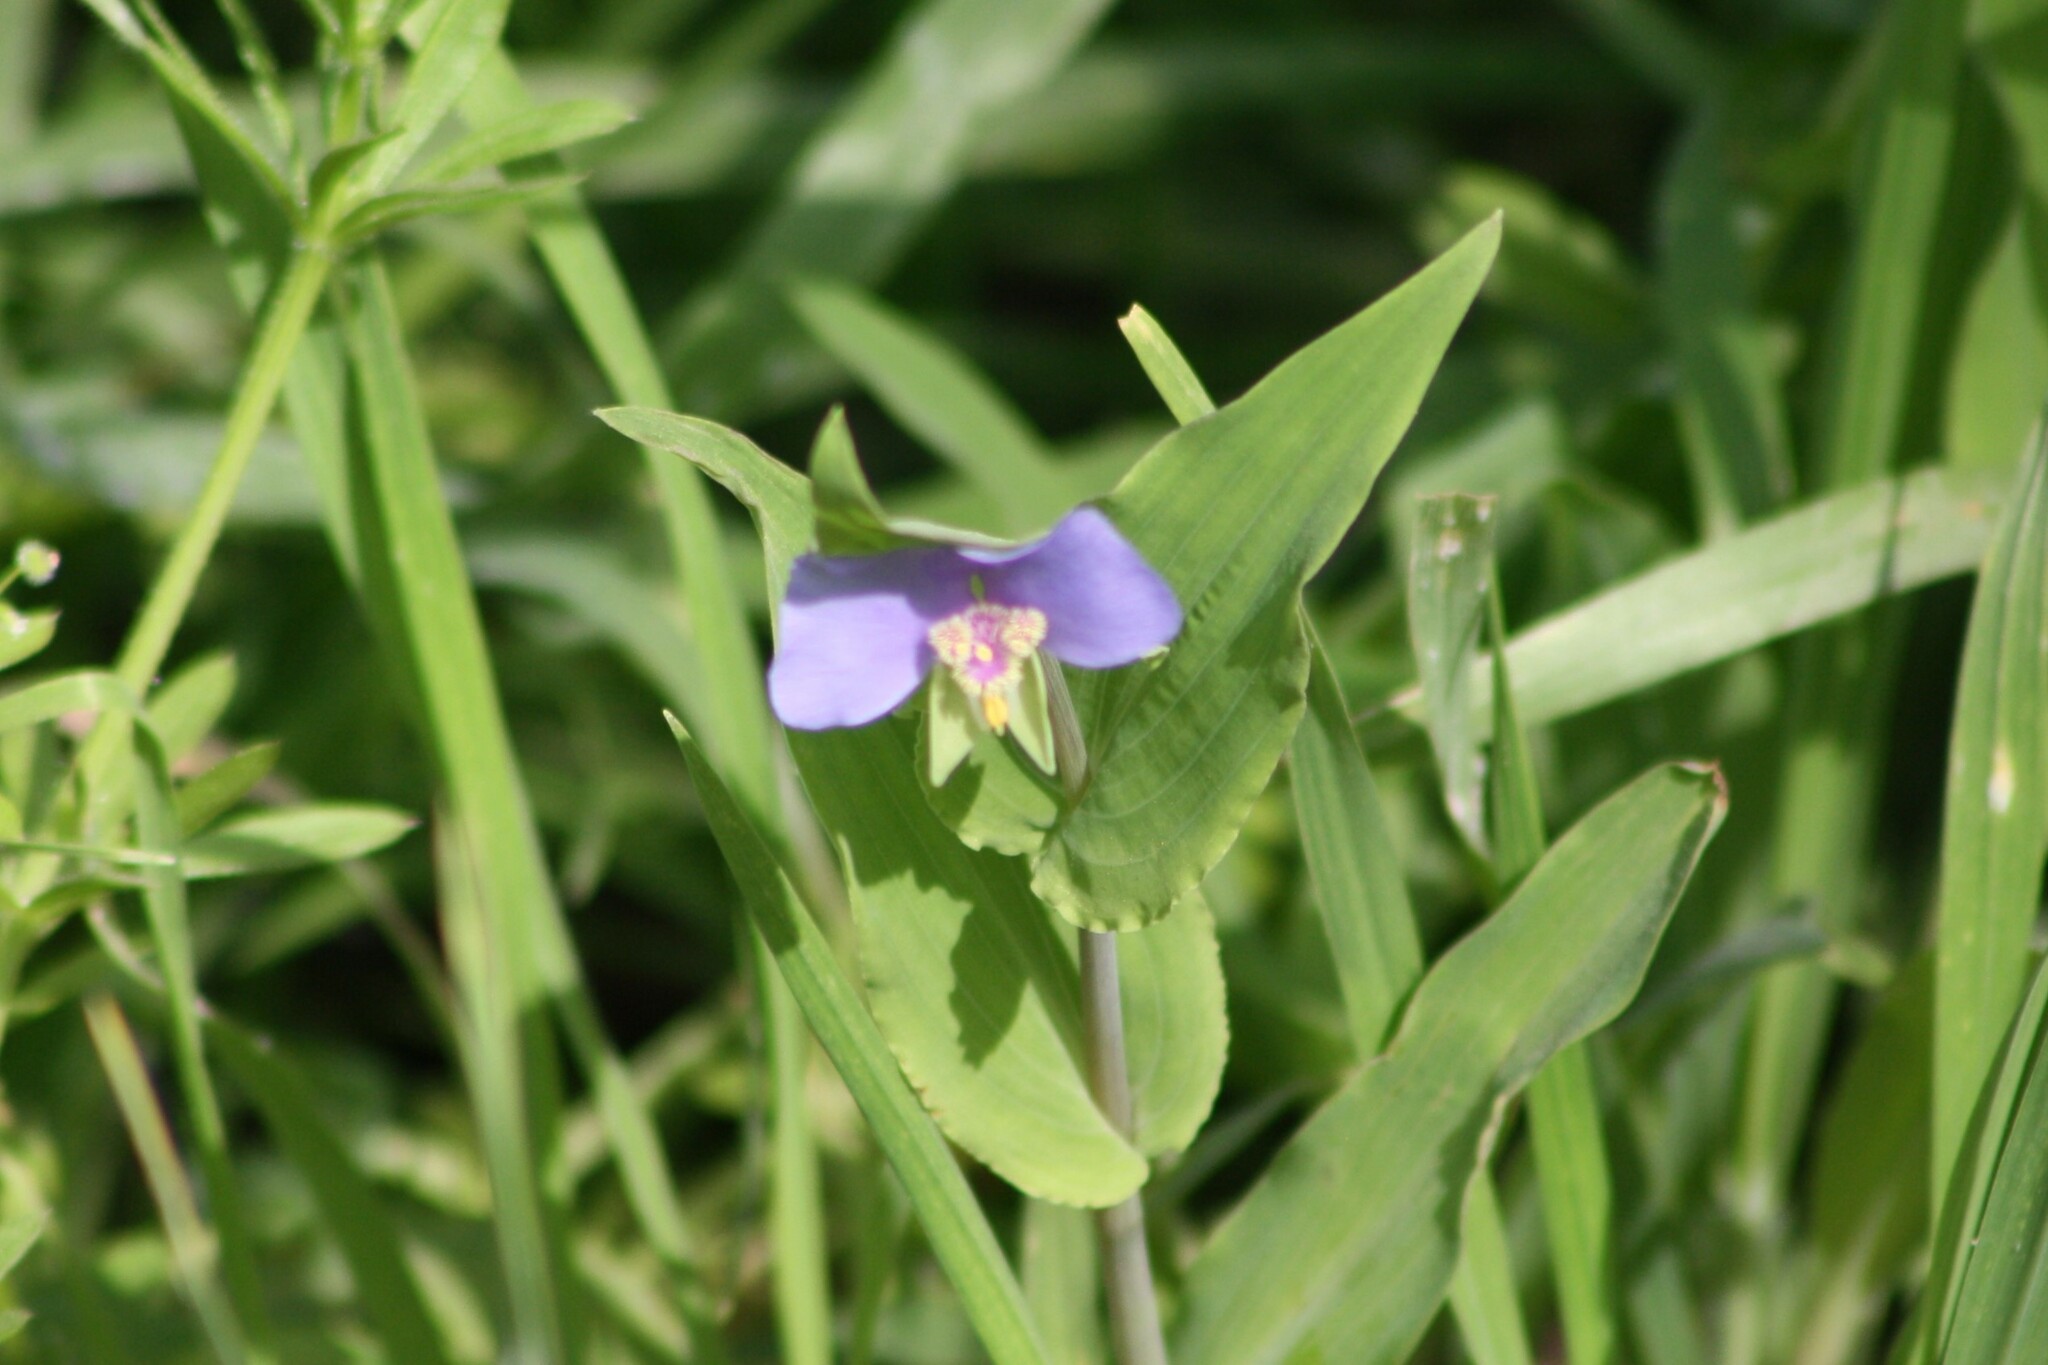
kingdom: Plantae
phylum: Tracheophyta
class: Liliopsida
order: Commelinales
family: Commelinaceae
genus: Tinantia
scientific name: Tinantia anomala
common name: False dayflower
